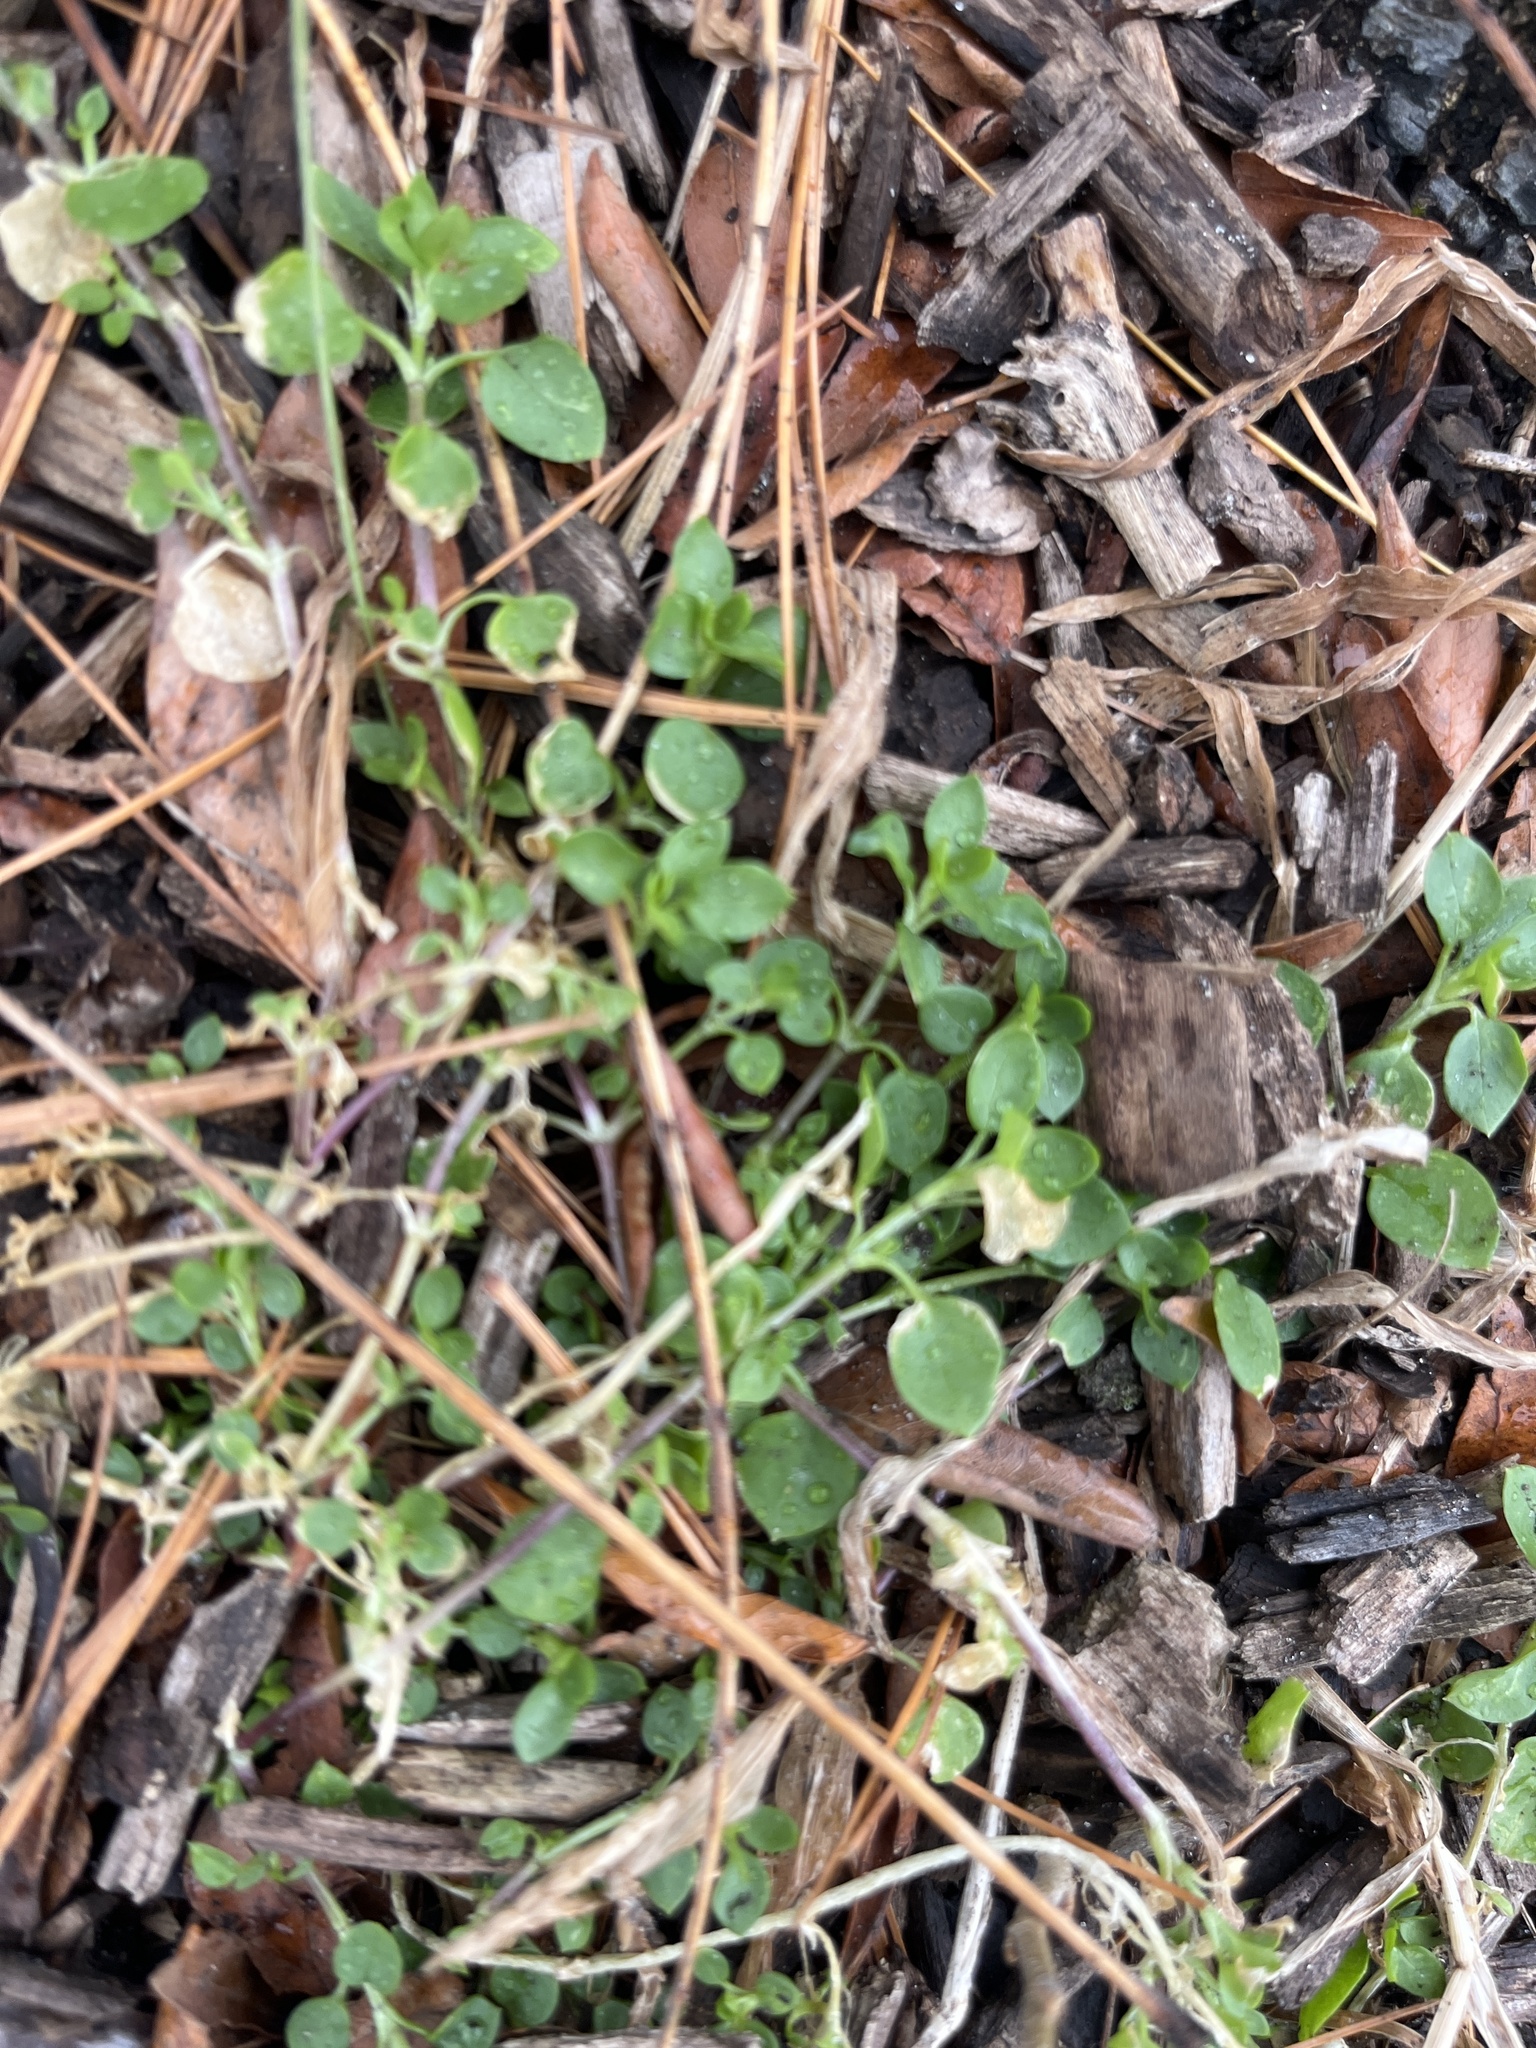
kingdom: Plantae
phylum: Tracheophyta
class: Magnoliopsida
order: Caryophyllales
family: Caryophyllaceae
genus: Stellaria
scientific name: Stellaria media
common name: Common chickweed
